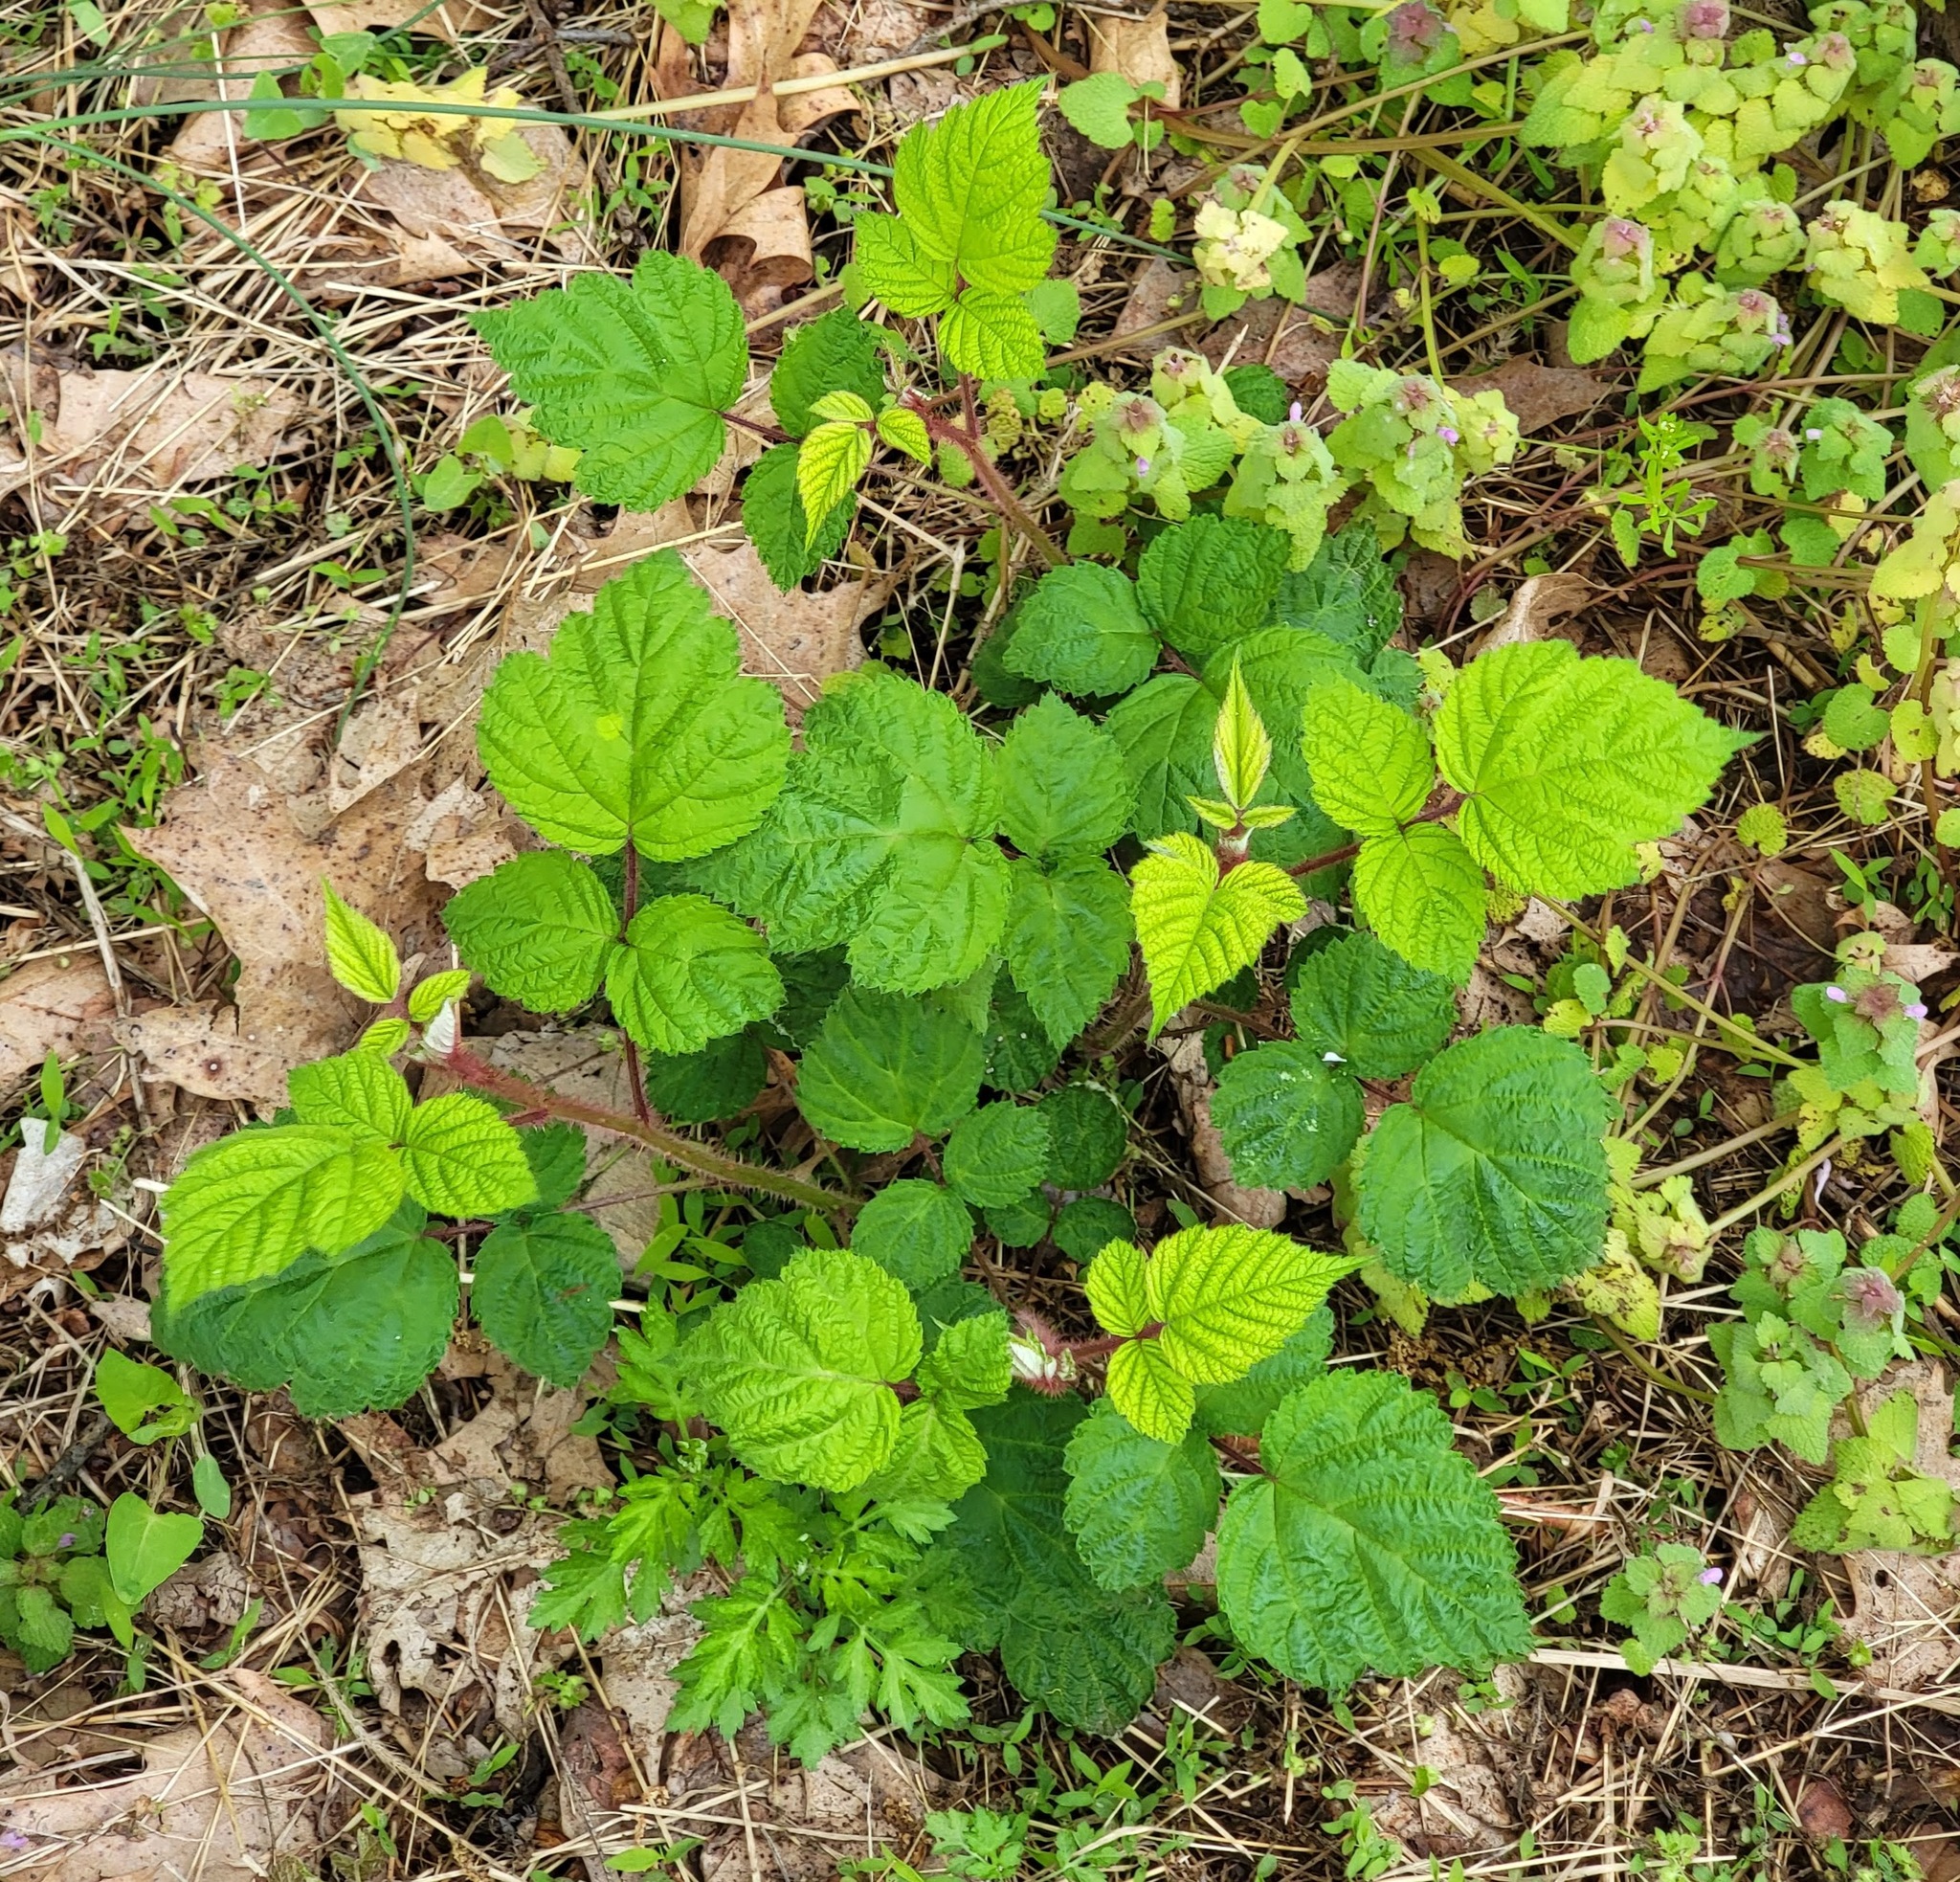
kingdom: Plantae
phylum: Tracheophyta
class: Magnoliopsida
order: Rosales
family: Rosaceae
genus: Rubus
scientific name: Rubus phoenicolasius
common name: Japanese wineberry
